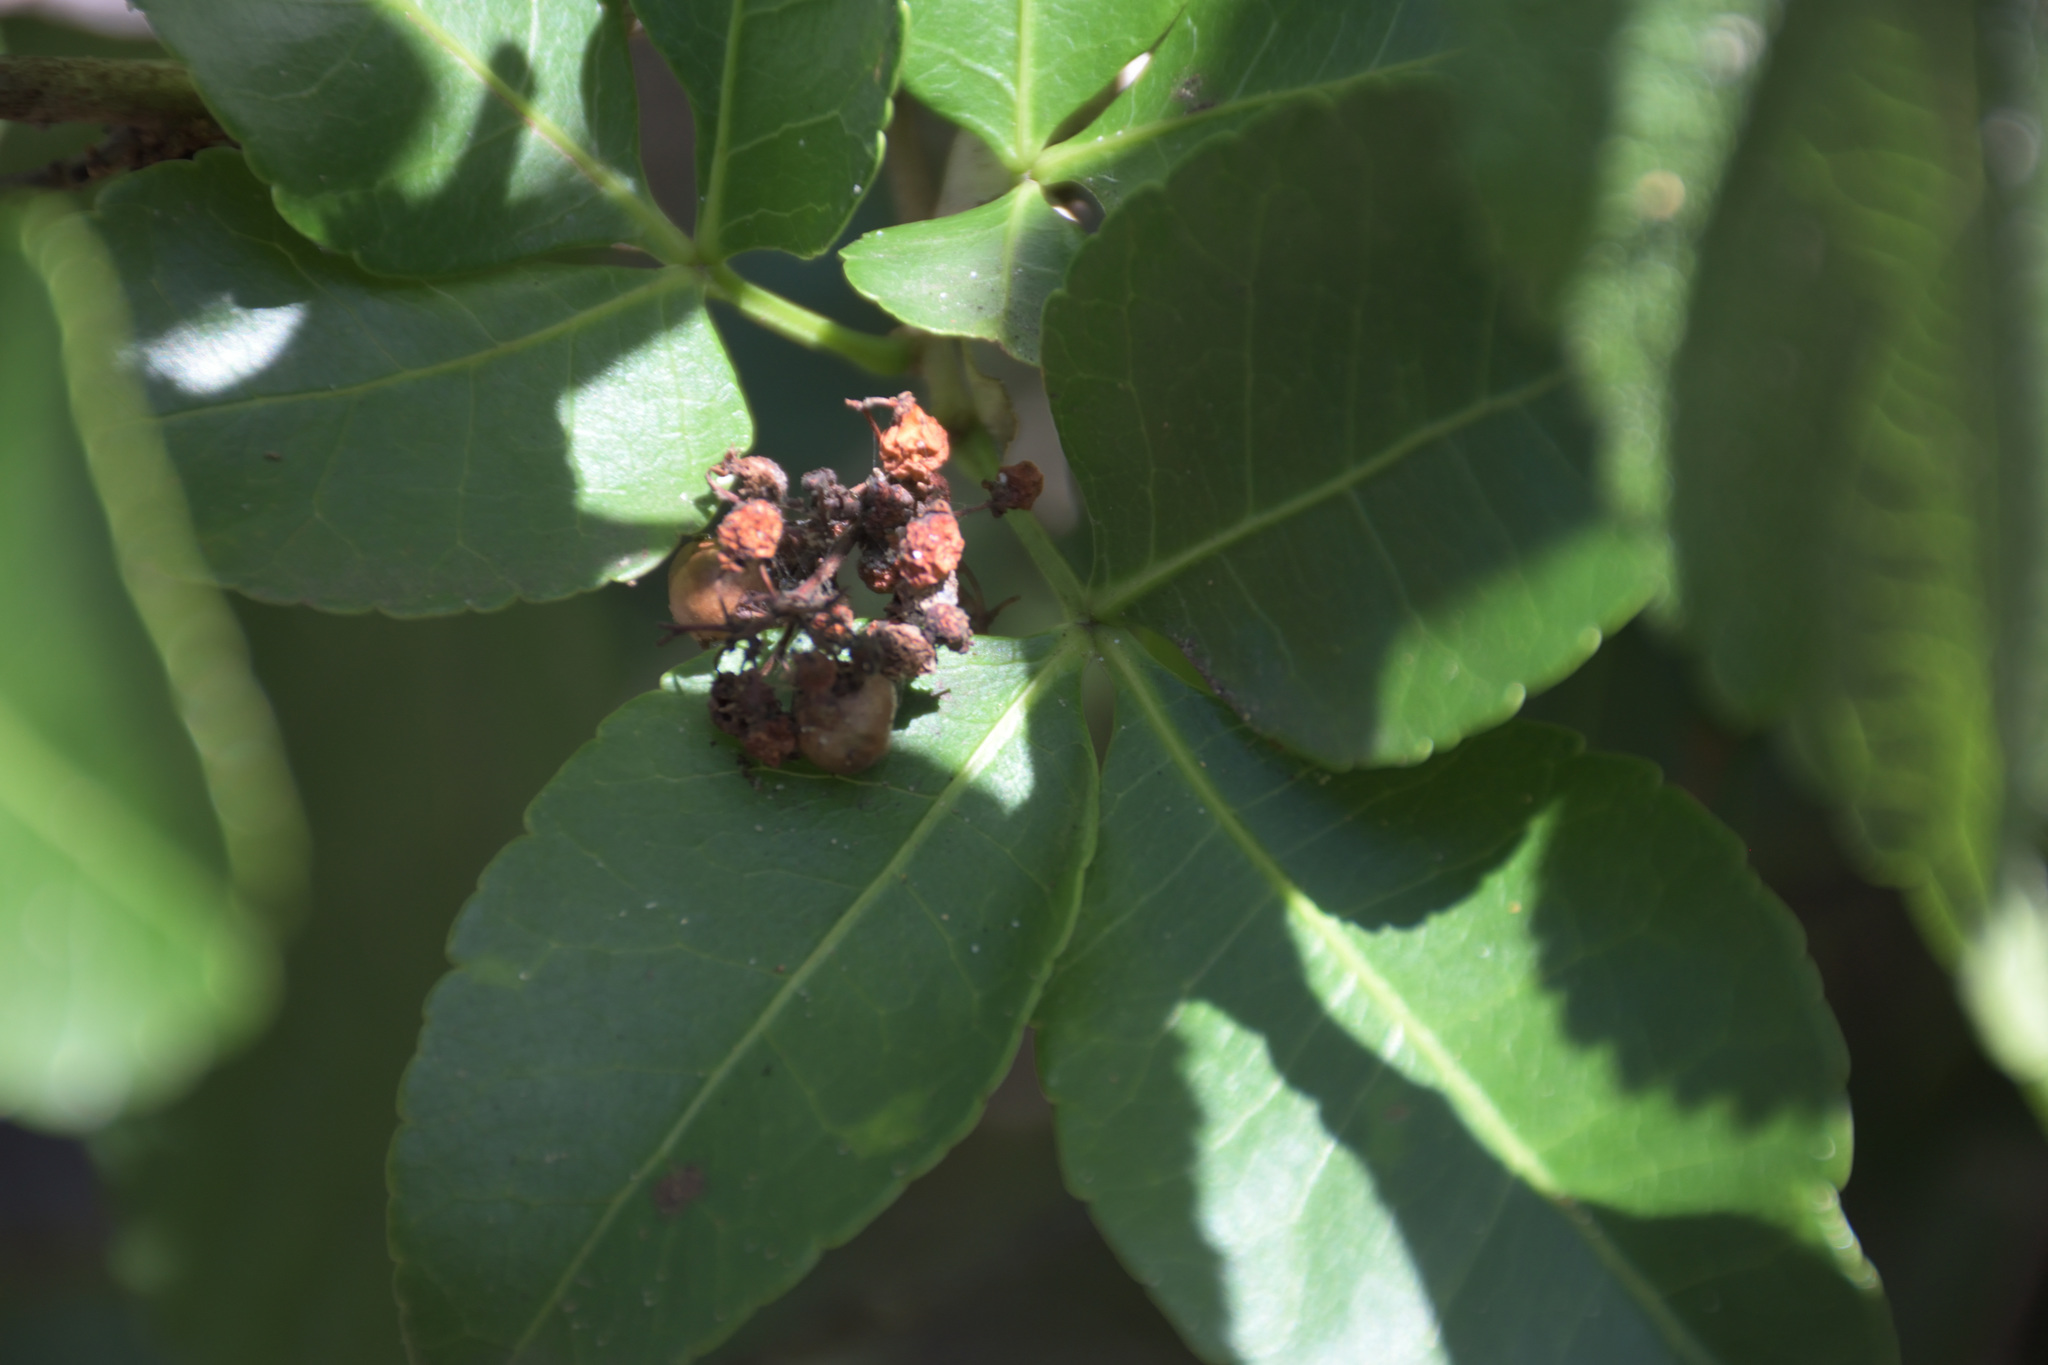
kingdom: Plantae
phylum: Tracheophyta
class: Magnoliopsida
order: Sapindales
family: Anacardiaceae
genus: Searsia
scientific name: Searsia natalensis
